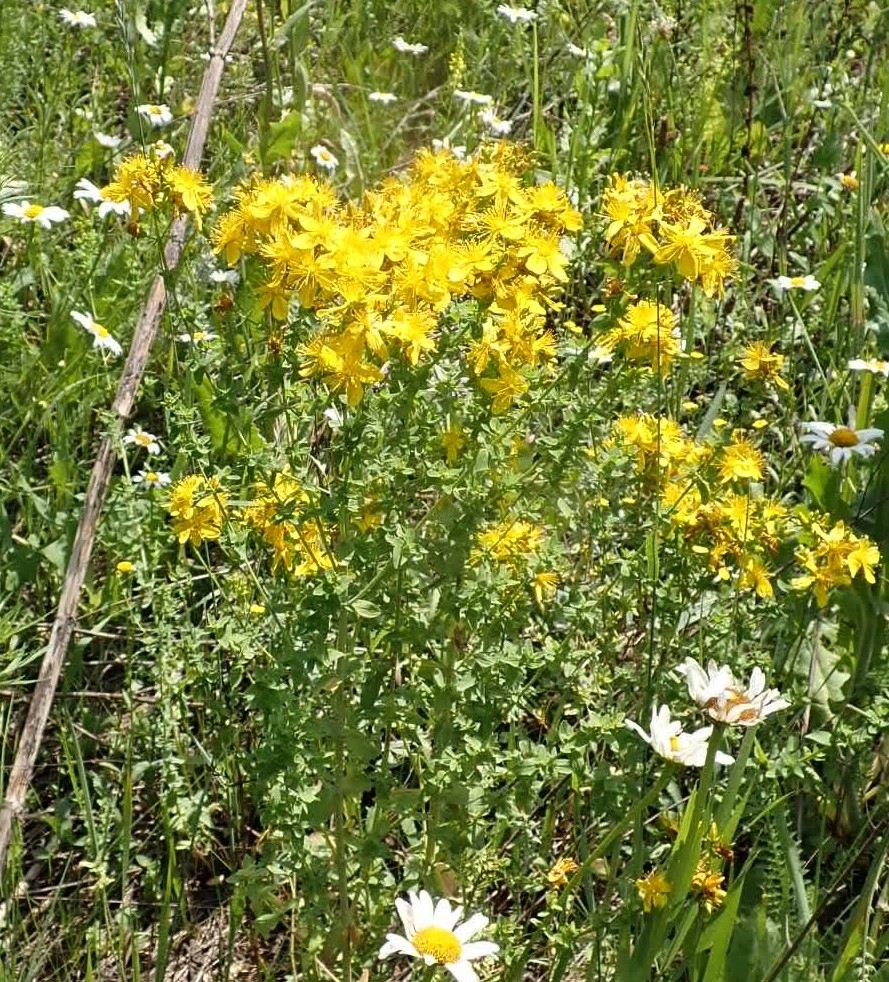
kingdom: Plantae
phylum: Tracheophyta
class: Magnoliopsida
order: Malpighiales
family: Hypericaceae
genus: Hypericum
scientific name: Hypericum perforatum
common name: Common st. johnswort
